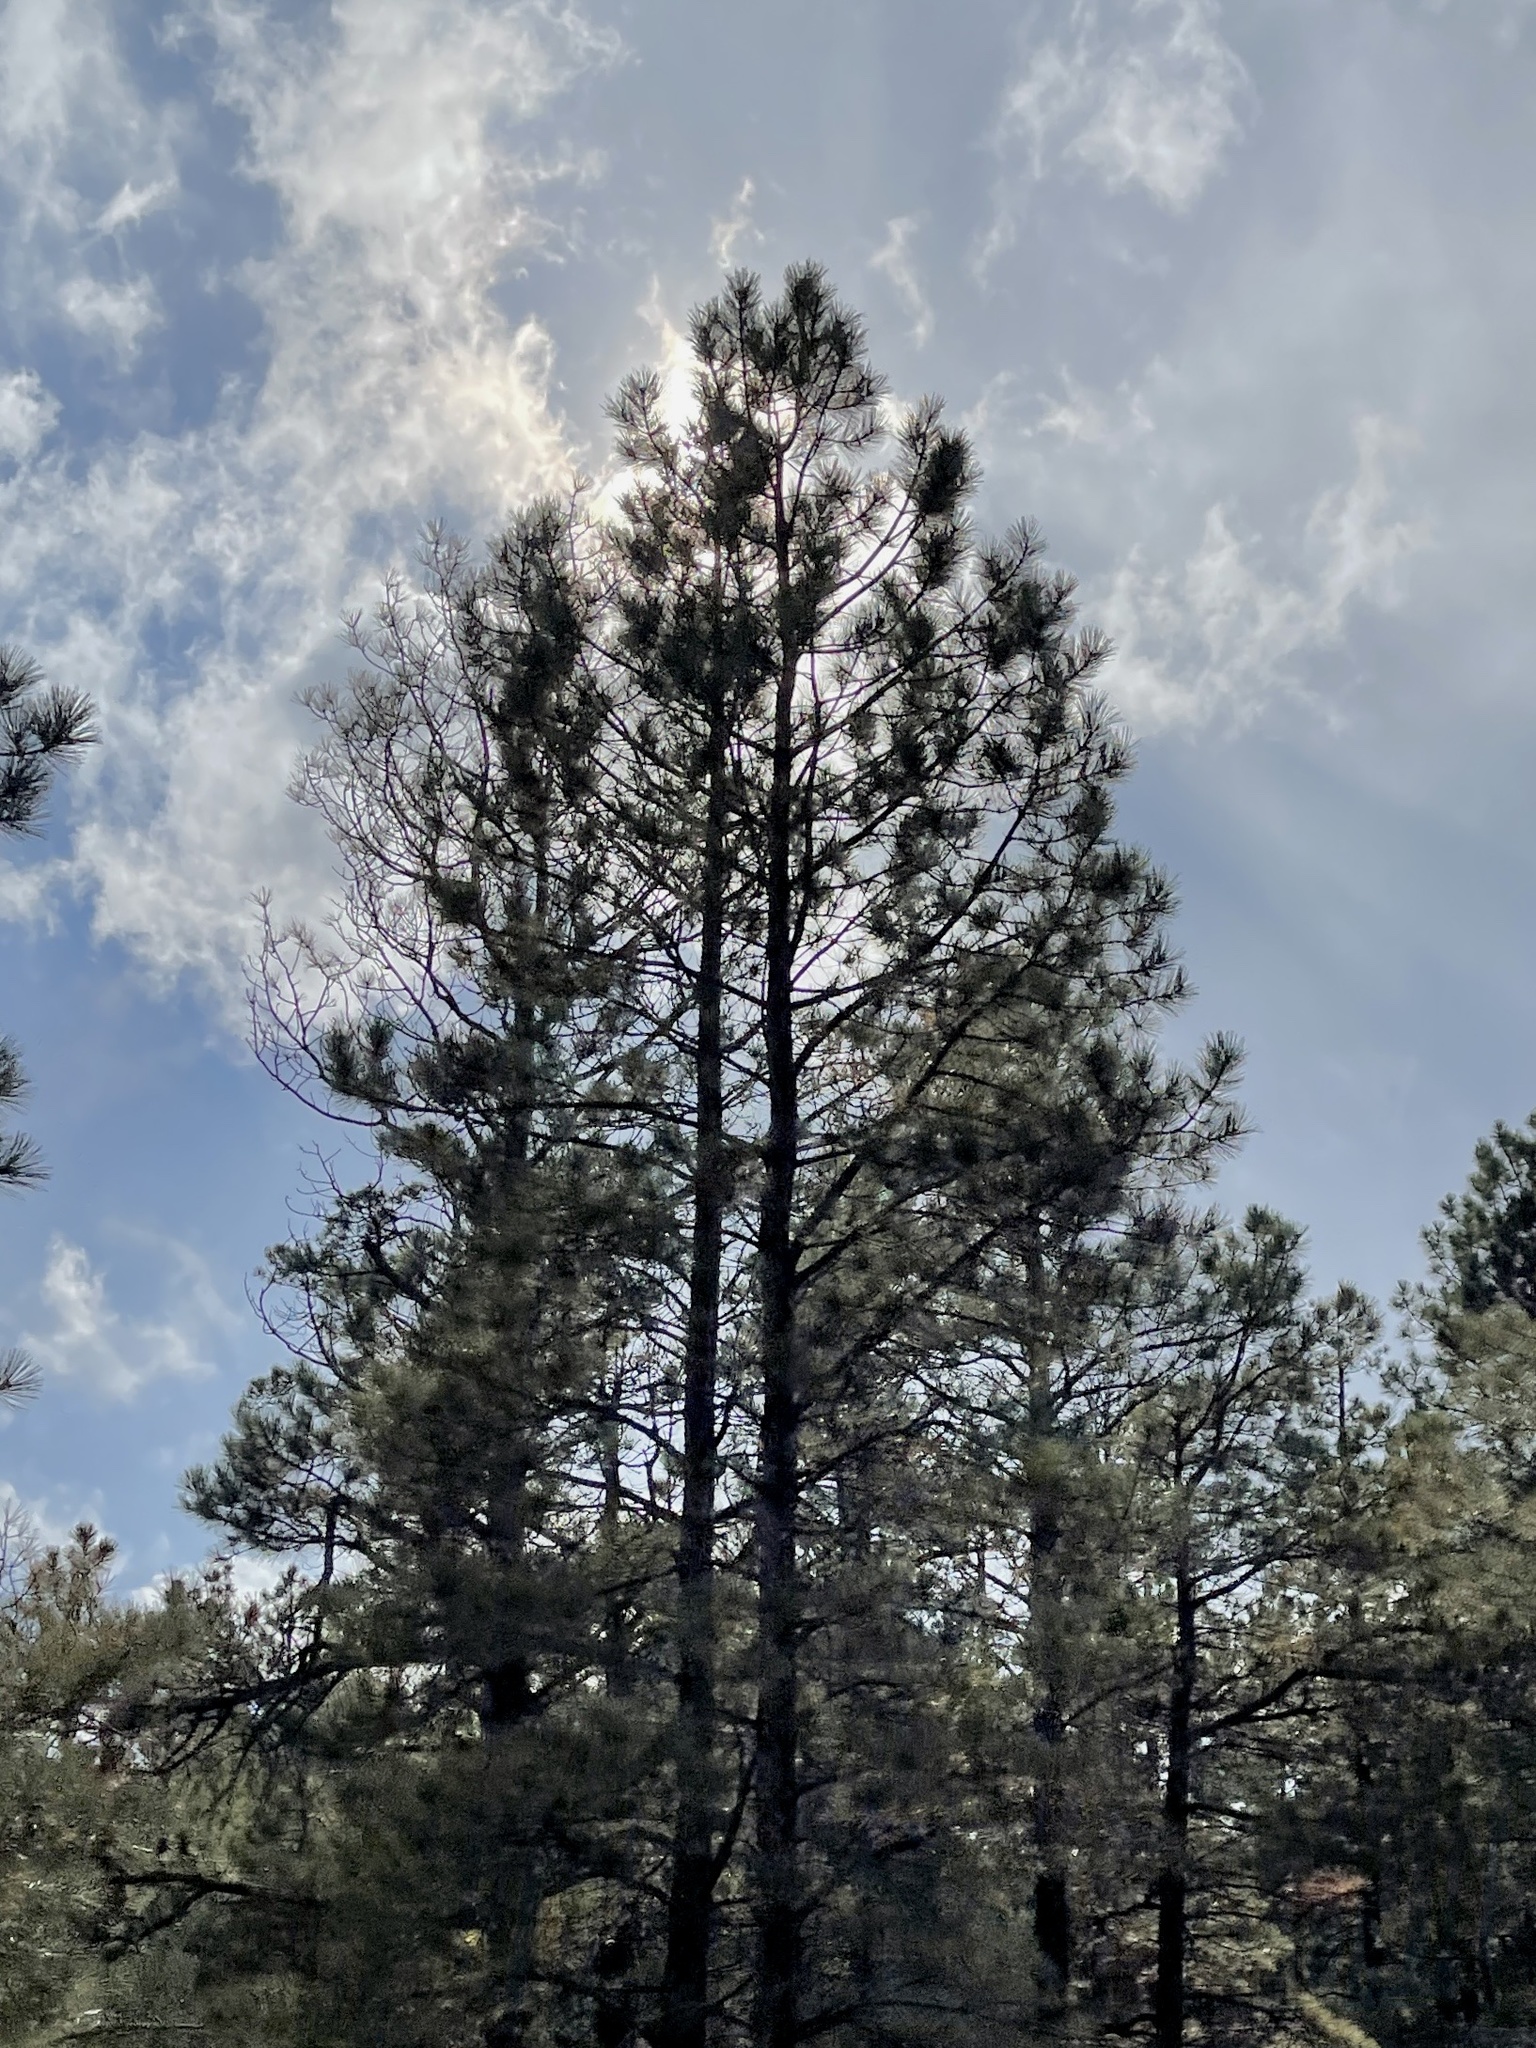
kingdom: Plantae
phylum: Tracheophyta
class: Pinopsida
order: Pinales
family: Pinaceae
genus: Pinus
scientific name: Pinus ponderosa
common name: Western yellow-pine
